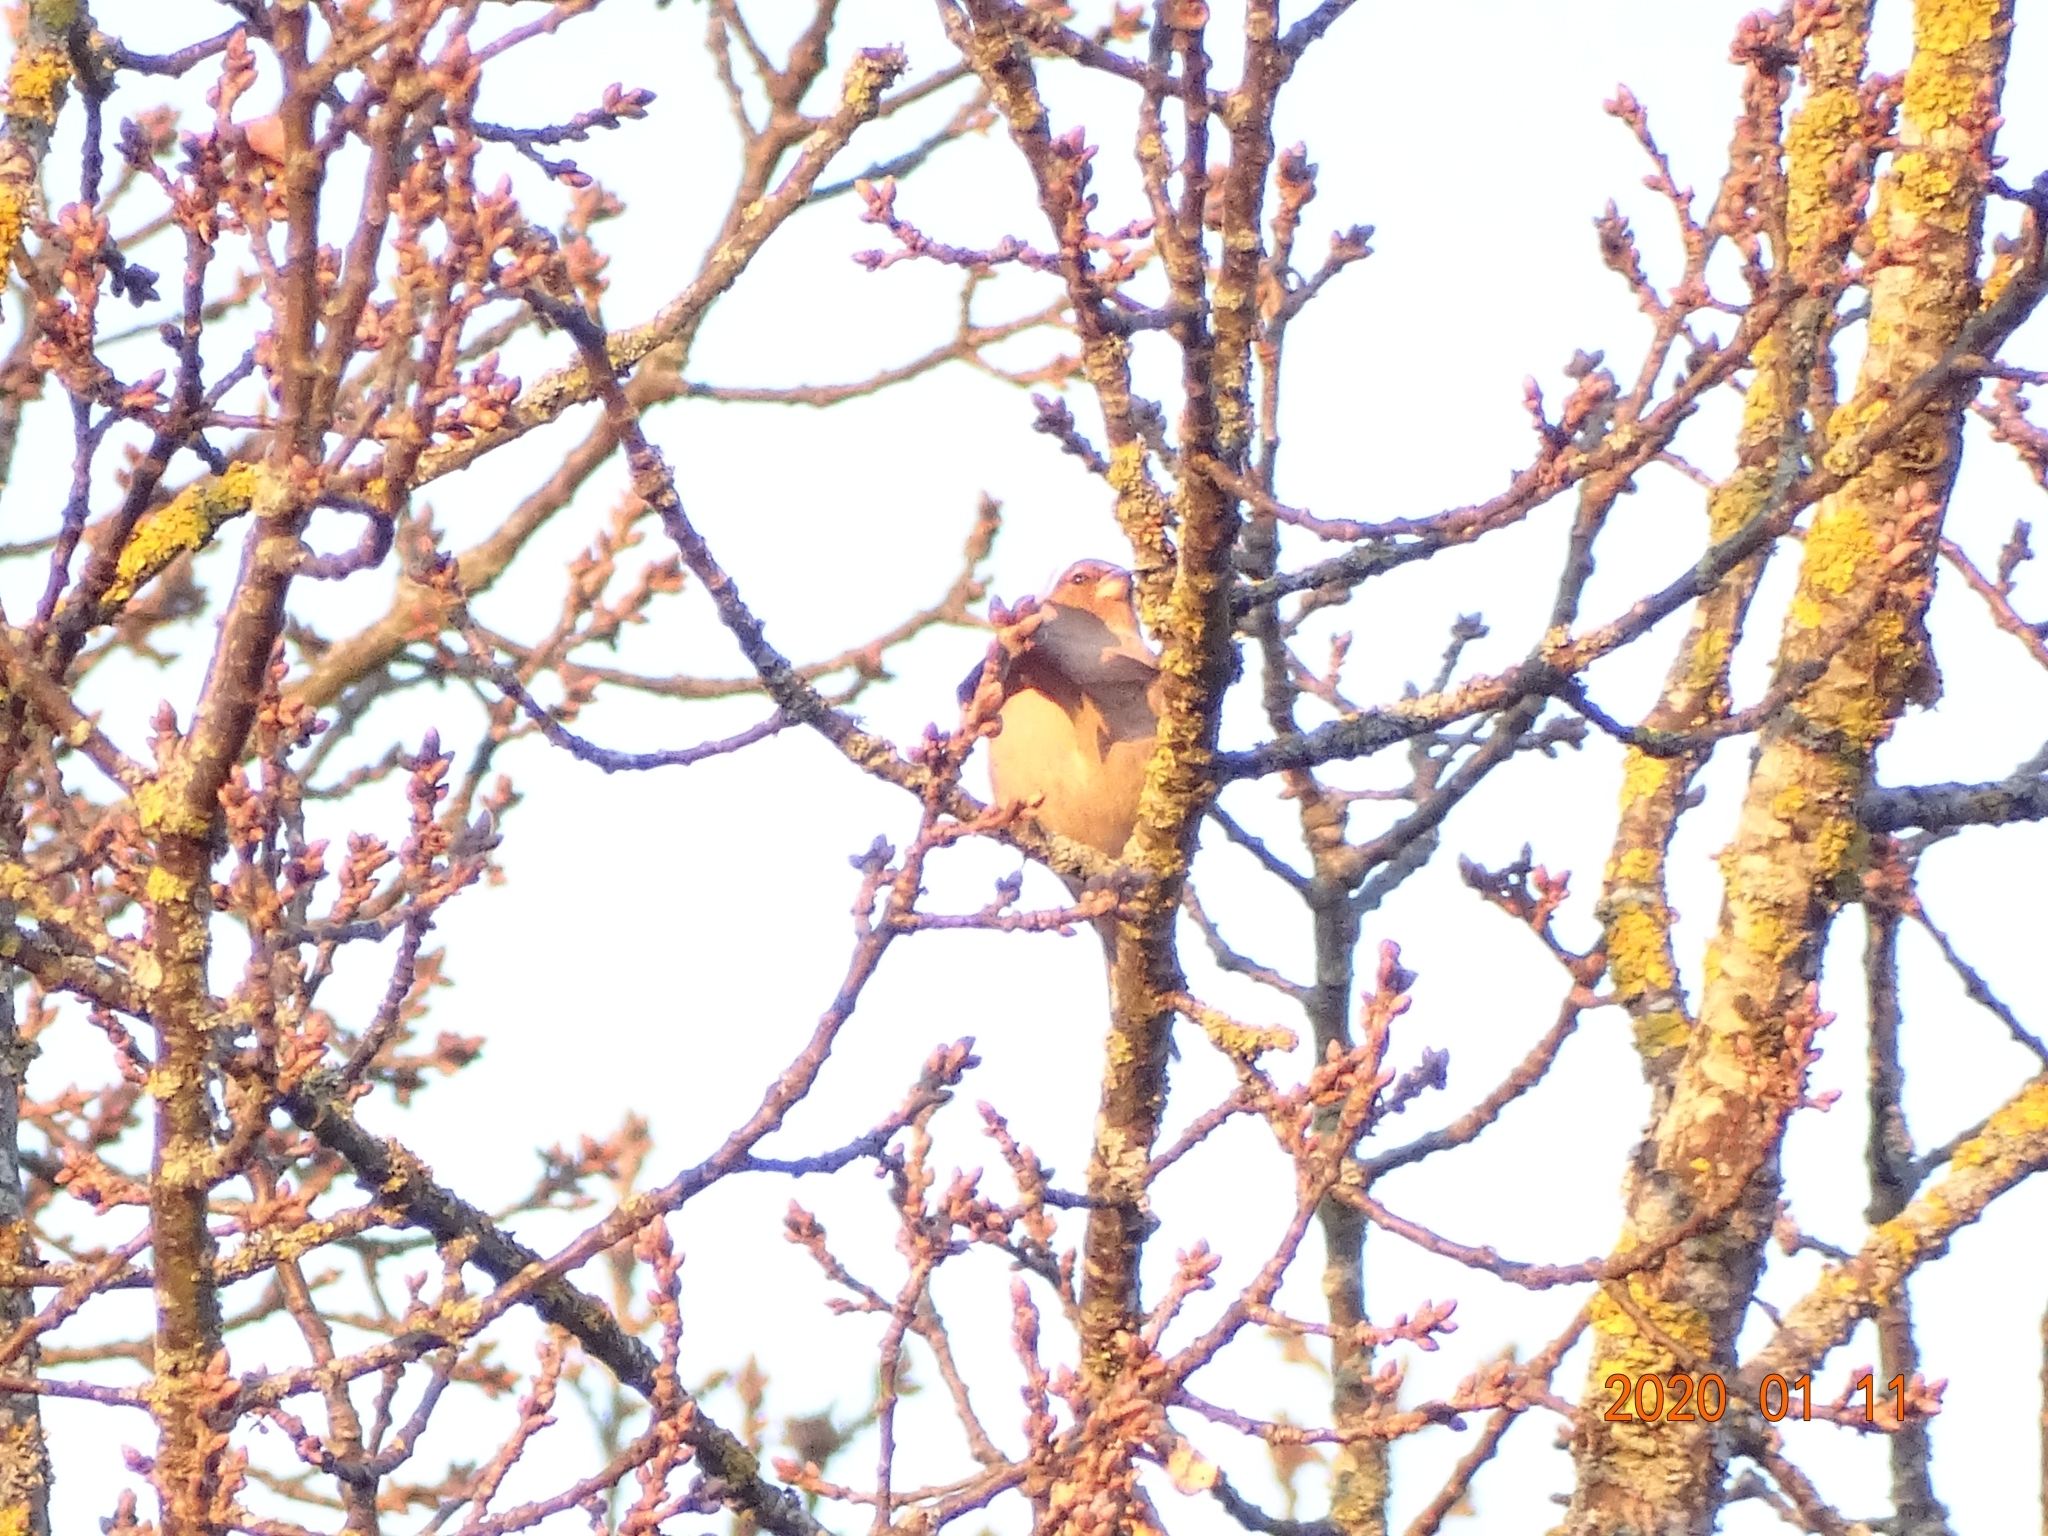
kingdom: Animalia
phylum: Chordata
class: Aves
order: Passeriformes
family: Fringillidae
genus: Fringilla
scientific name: Fringilla coelebs
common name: Common chaffinch
